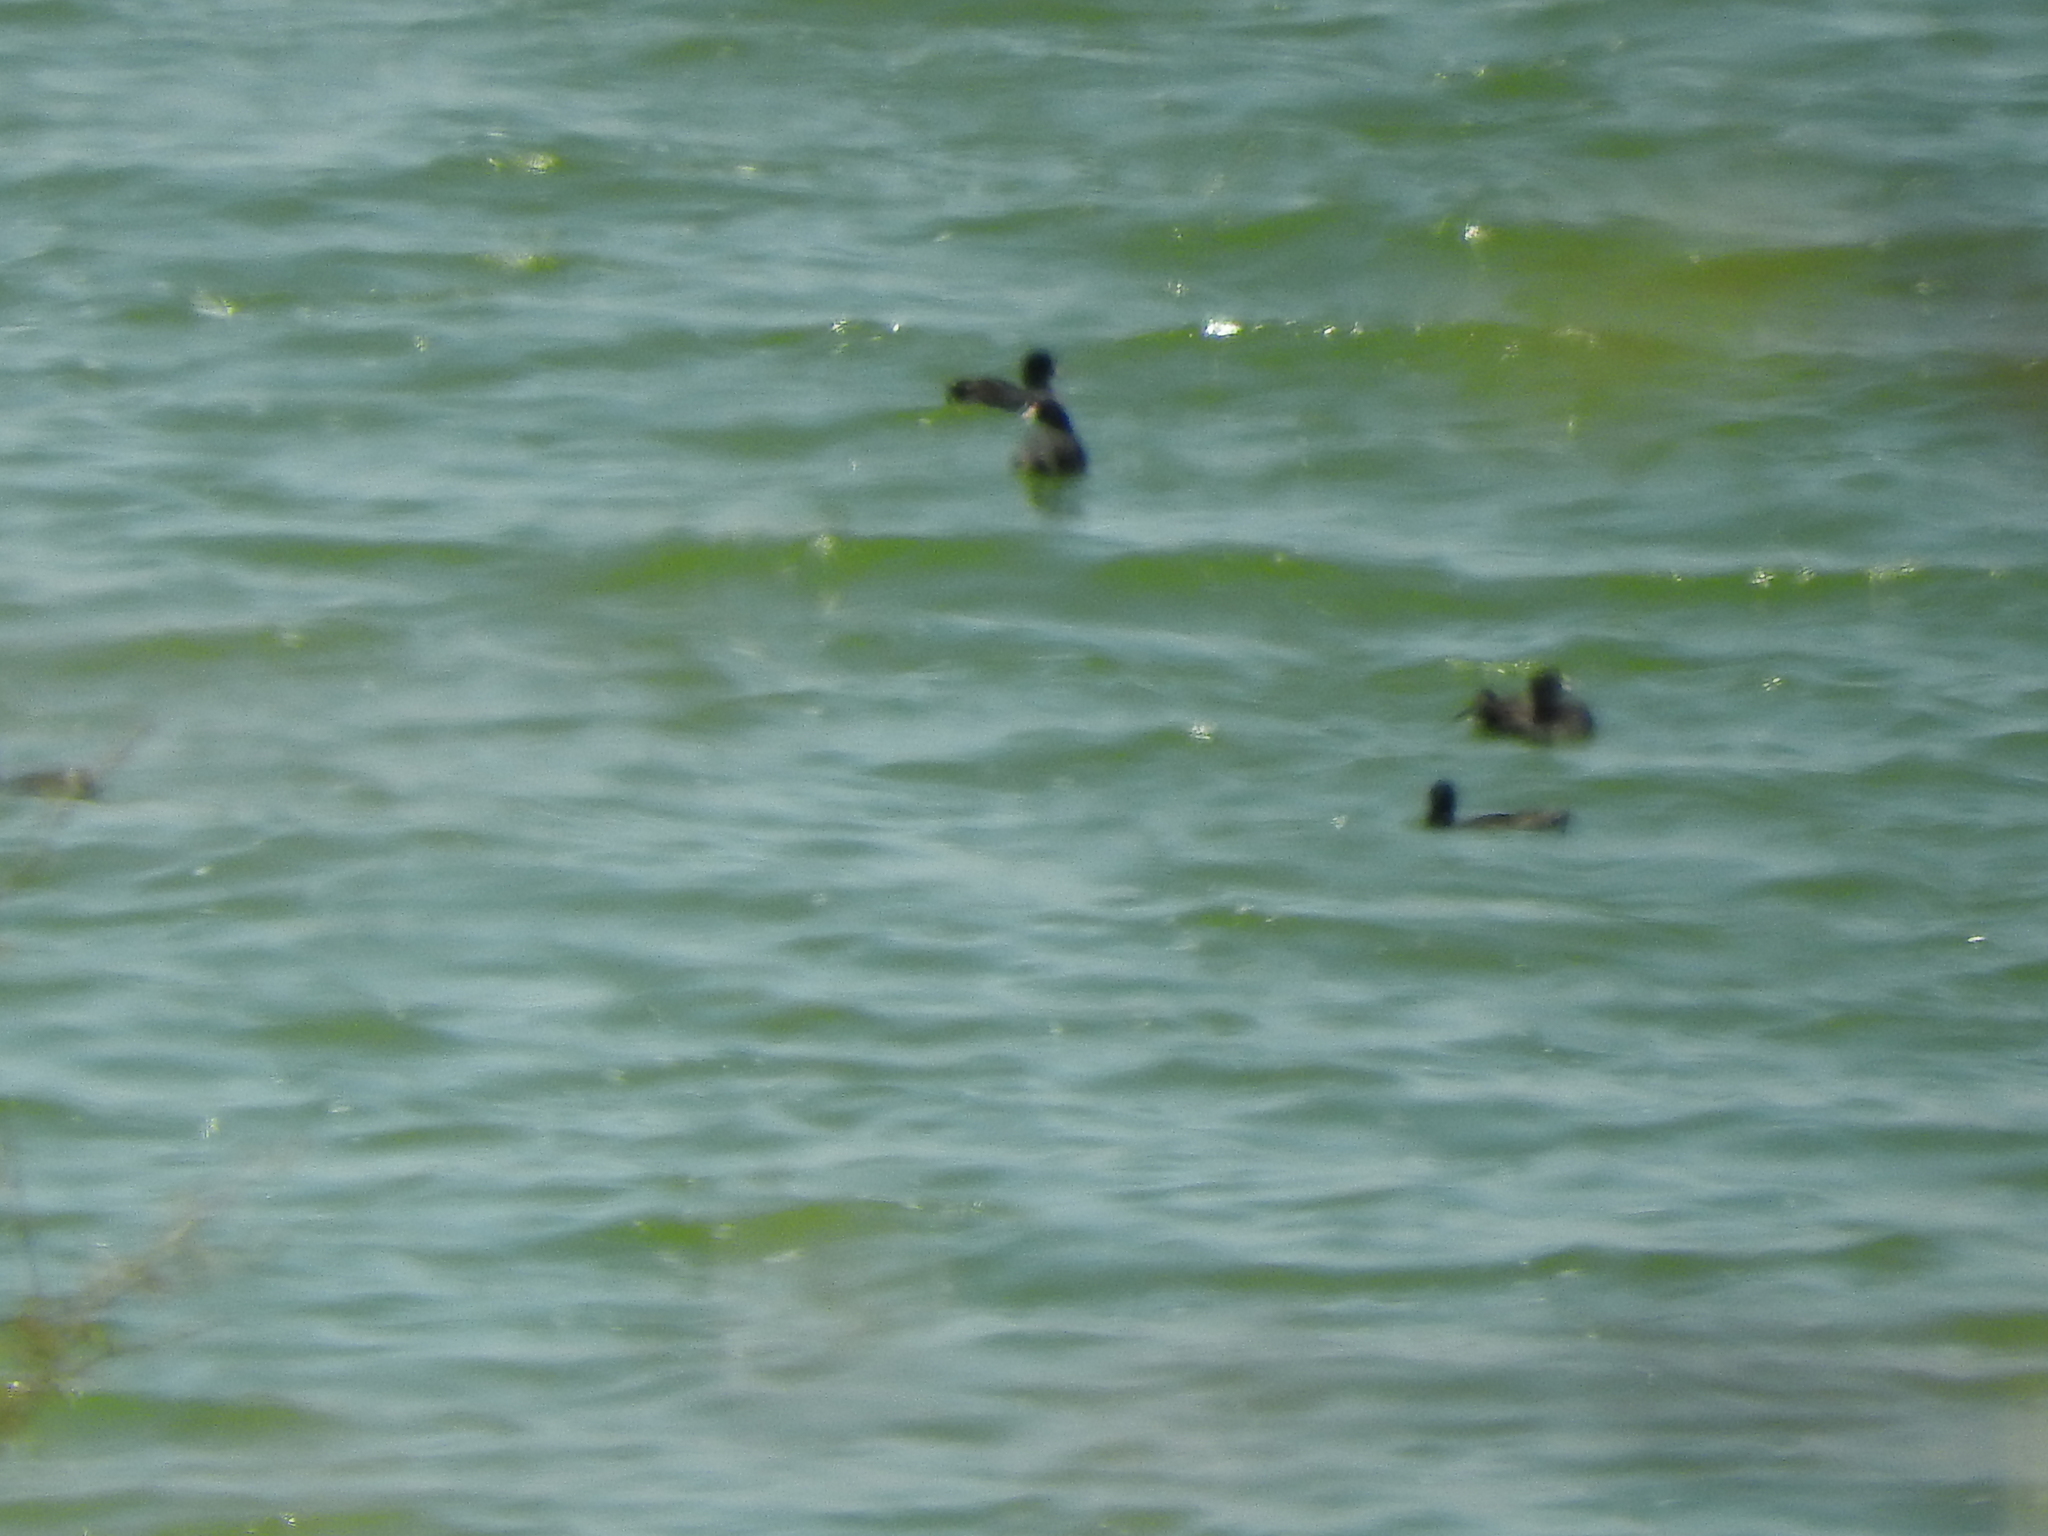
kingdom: Animalia
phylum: Chordata
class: Aves
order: Gruiformes
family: Rallidae
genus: Fulica
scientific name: Fulica americana
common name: American coot
